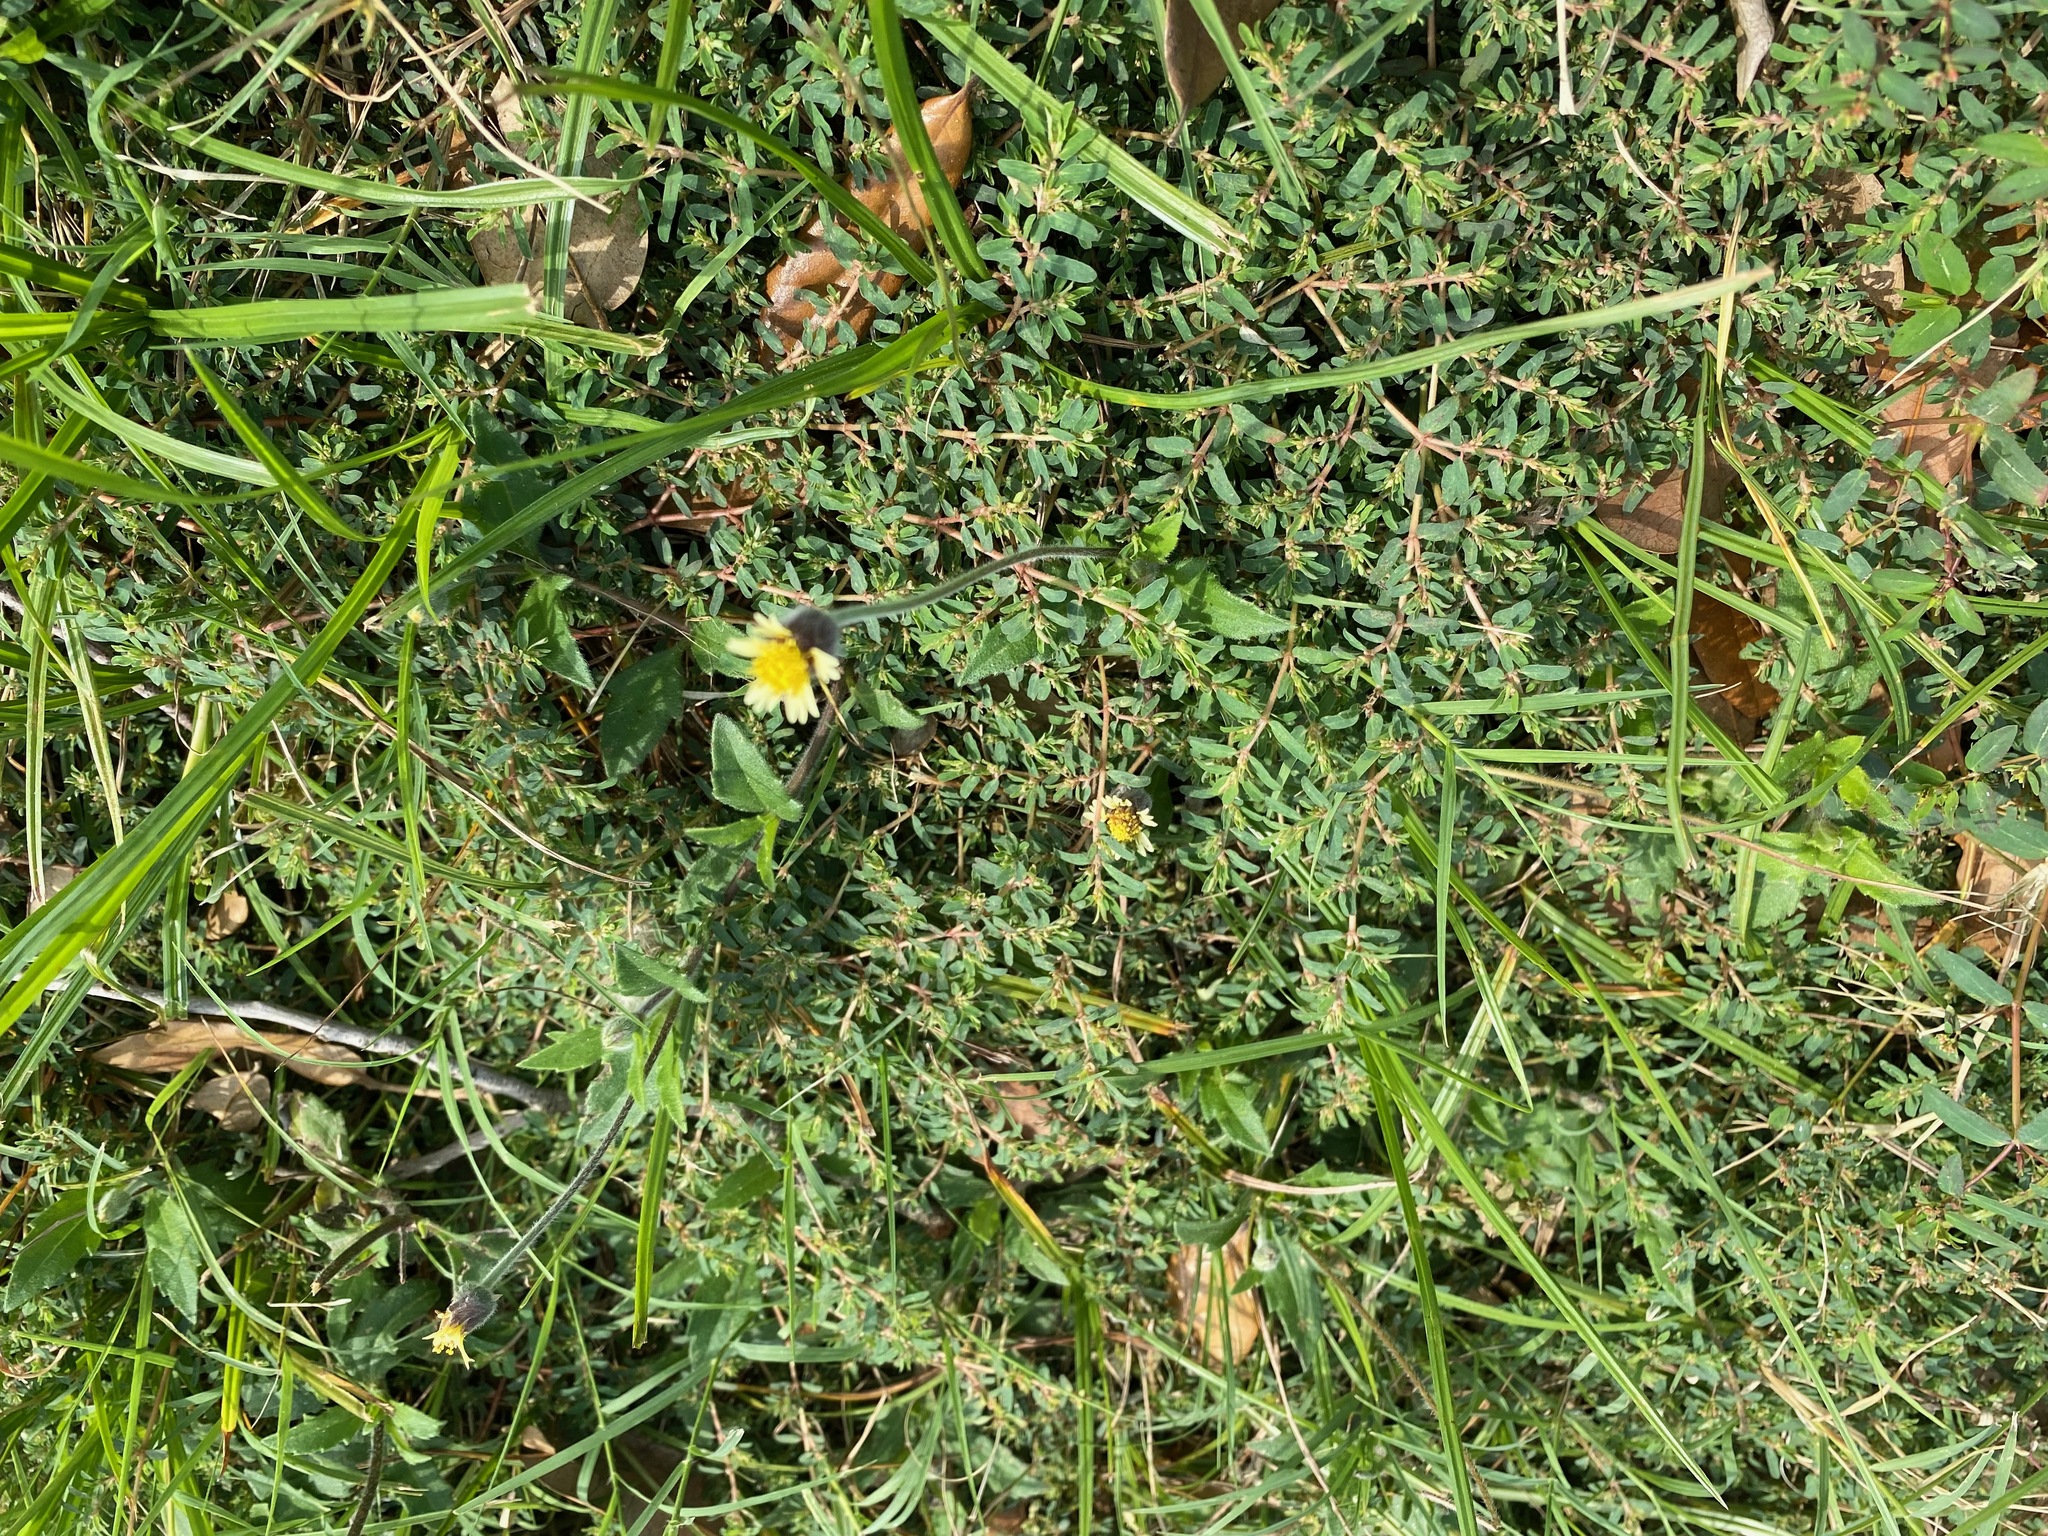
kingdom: Plantae
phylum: Tracheophyta
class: Magnoliopsida
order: Malpighiales
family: Euphorbiaceae
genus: Euphorbia
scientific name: Euphorbia maculata
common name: Spotted spurge
